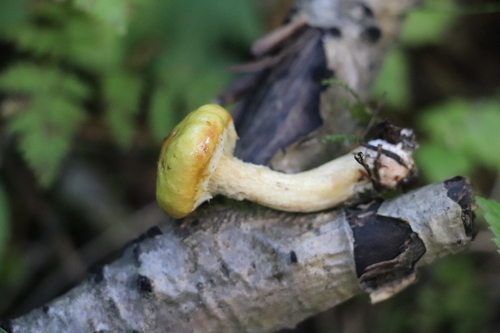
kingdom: Fungi
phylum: Basidiomycota
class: Agaricomycetes
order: Boletales
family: Suillaceae
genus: Suillus
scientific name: Suillus americanus
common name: Chicken fat mushroom
